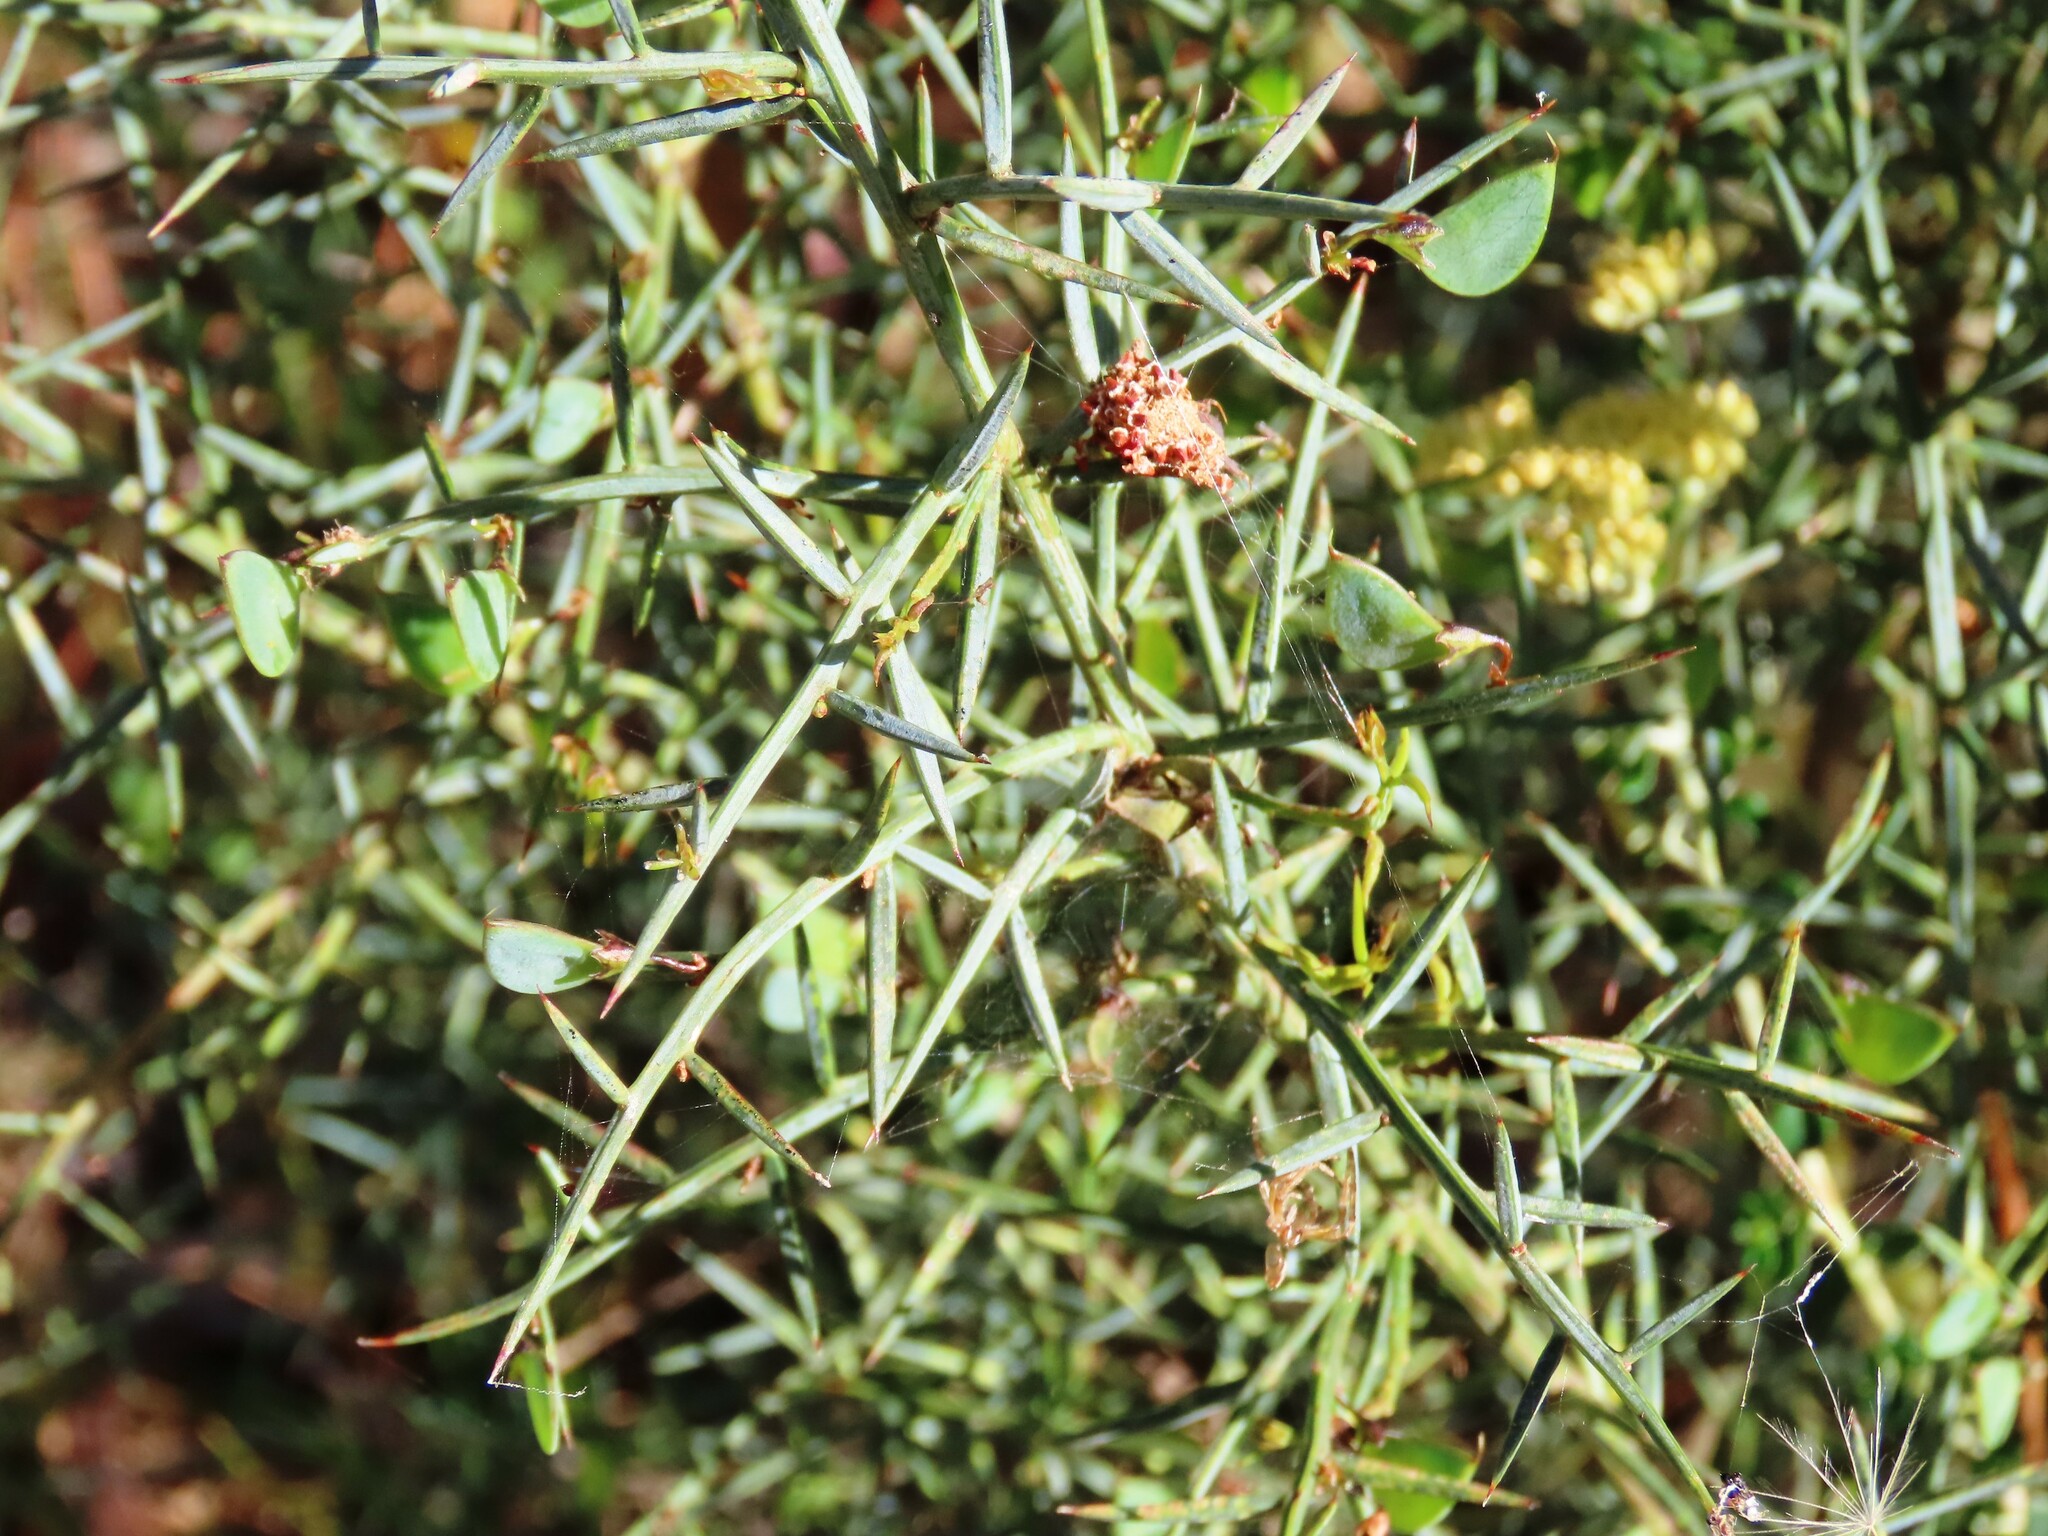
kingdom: Plantae
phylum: Tracheophyta
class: Magnoliopsida
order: Fabales
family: Fabaceae
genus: Daviesia
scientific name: Daviesia ulicifolia
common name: Gorse bitter-pea
